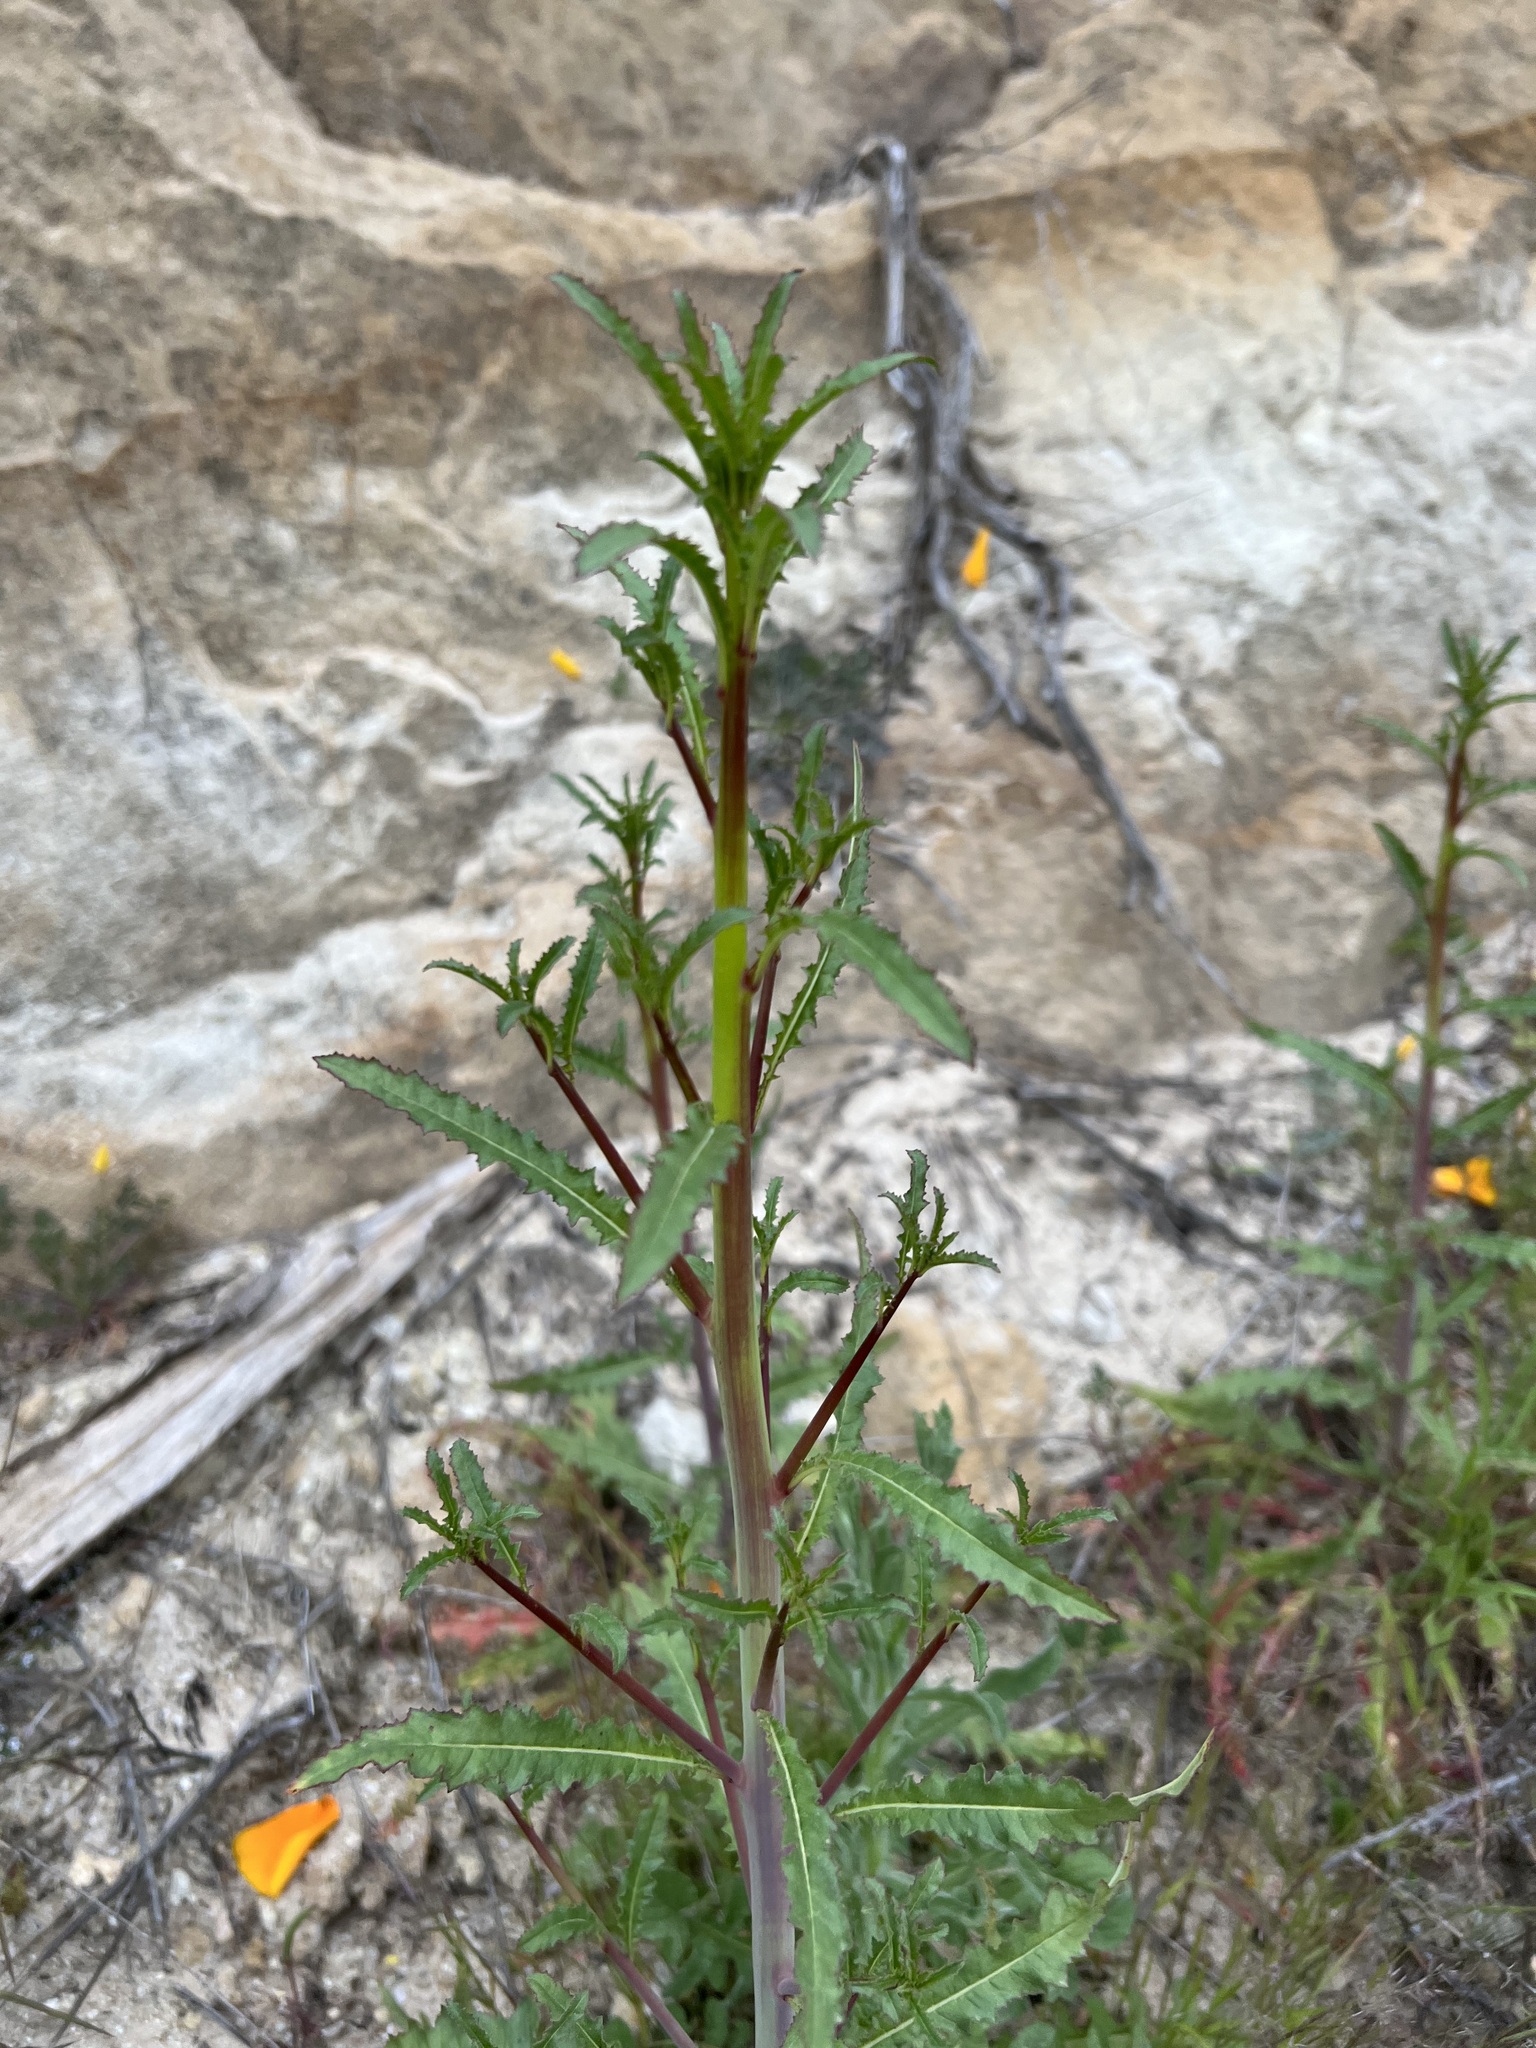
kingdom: Plantae
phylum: Tracheophyta
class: Magnoliopsida
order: Myrtales
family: Onagraceae
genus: Eulobus
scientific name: Eulobus californicus
